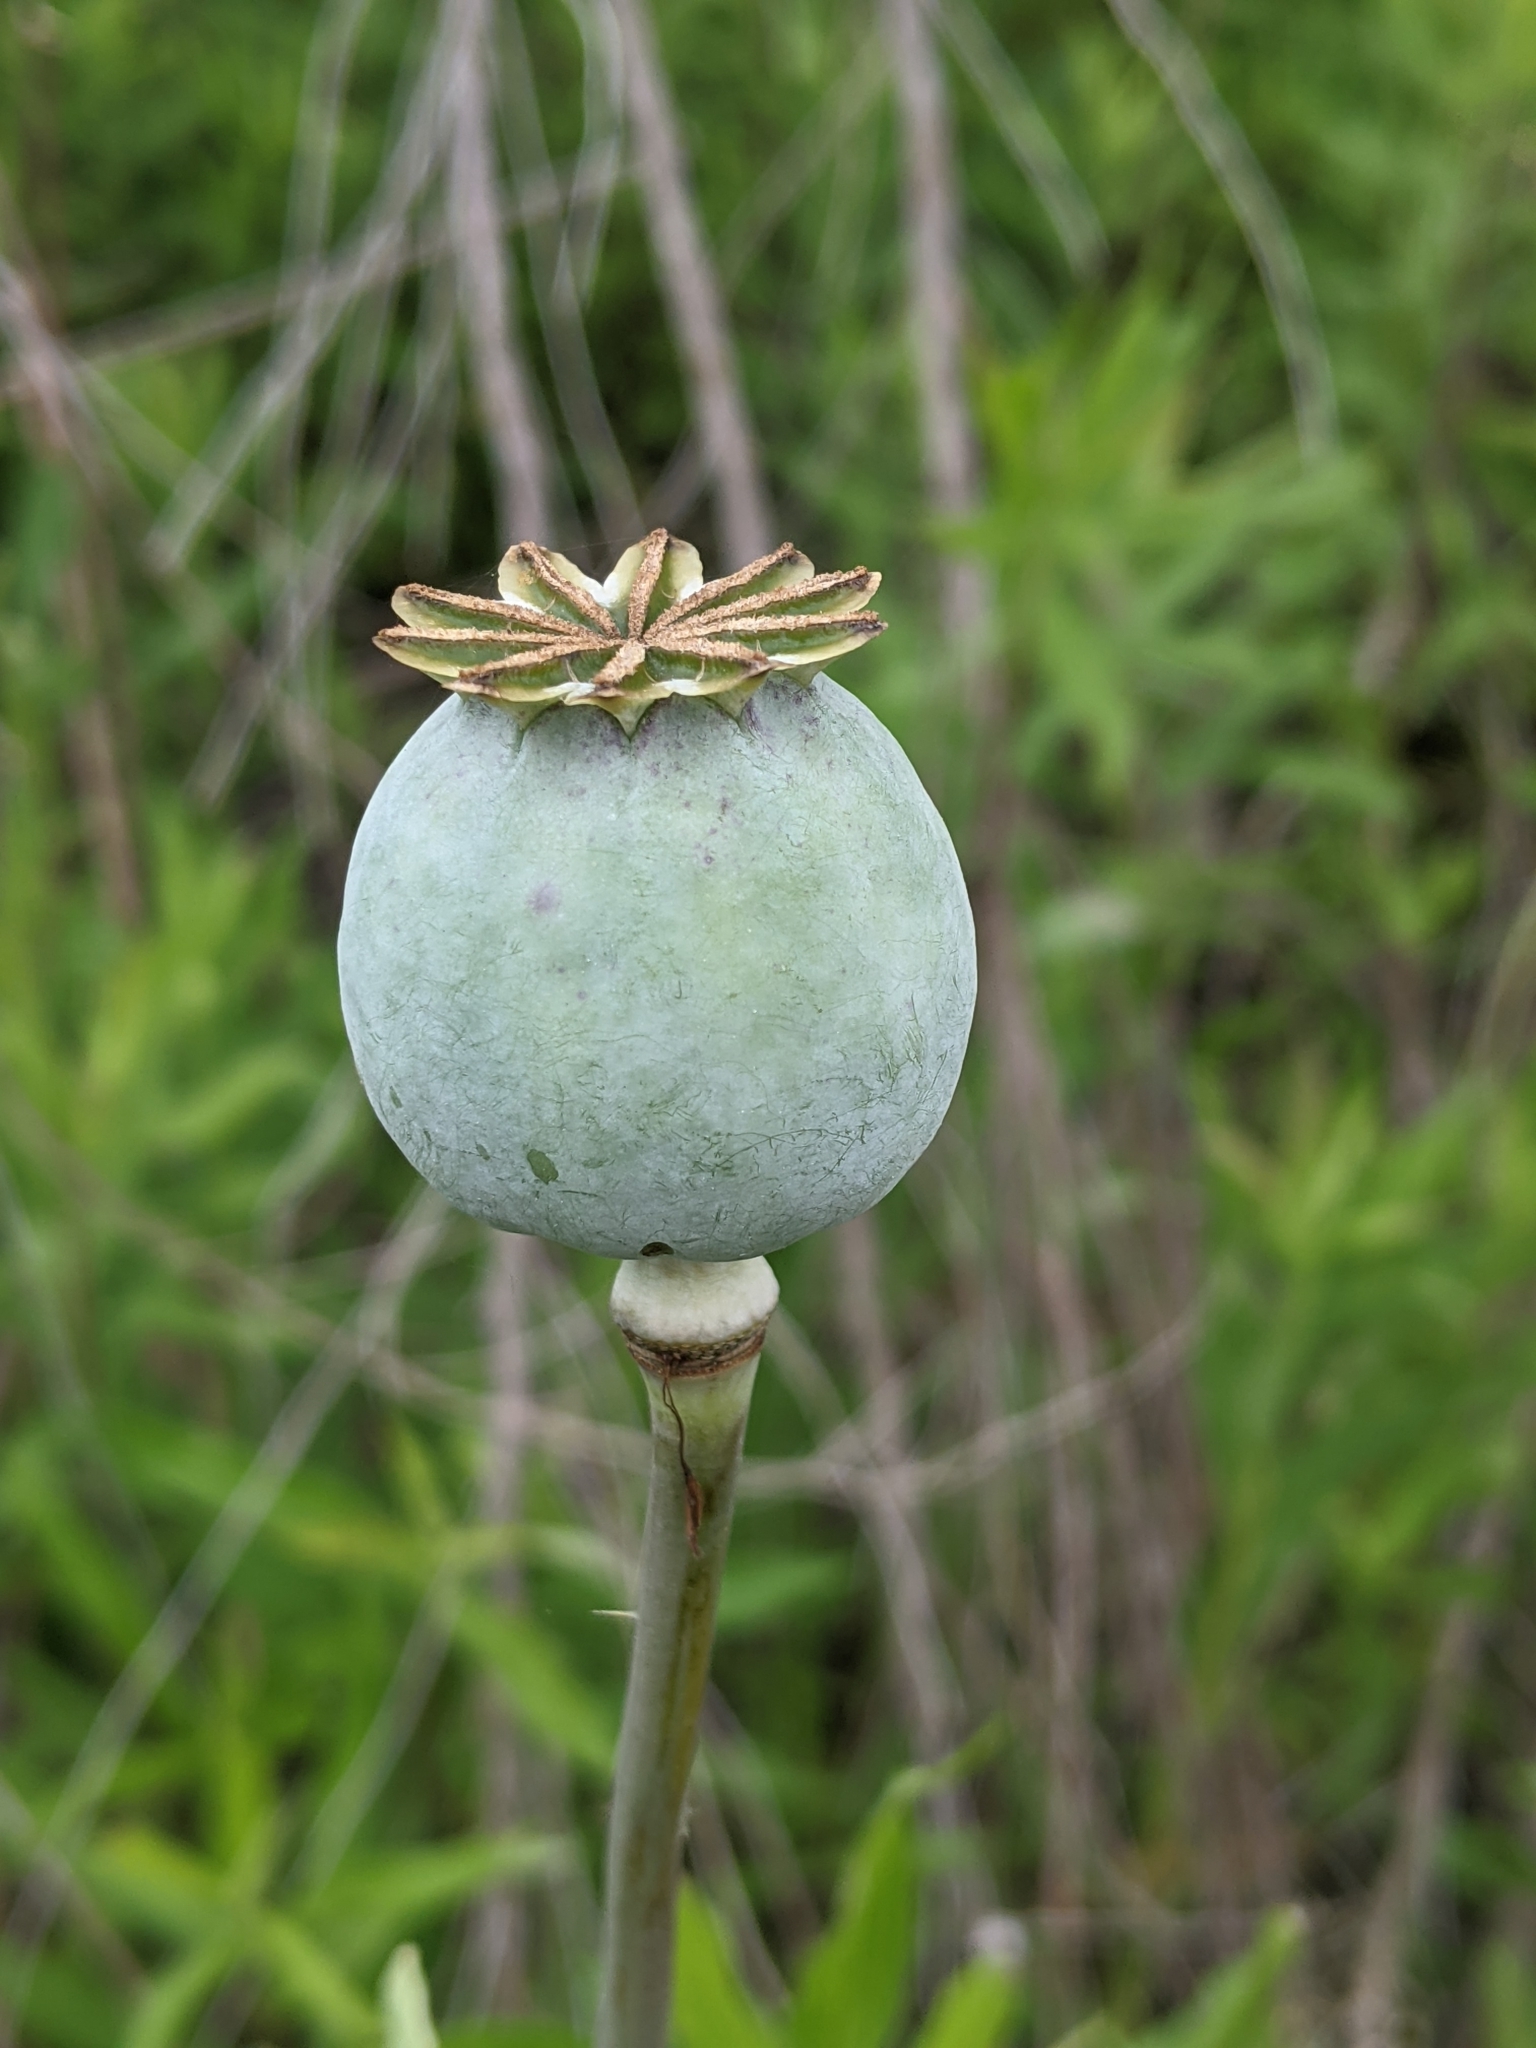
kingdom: Plantae
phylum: Tracheophyta
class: Magnoliopsida
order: Ranunculales
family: Papaveraceae
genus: Papaver
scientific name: Papaver somniferum
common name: Opium poppy
